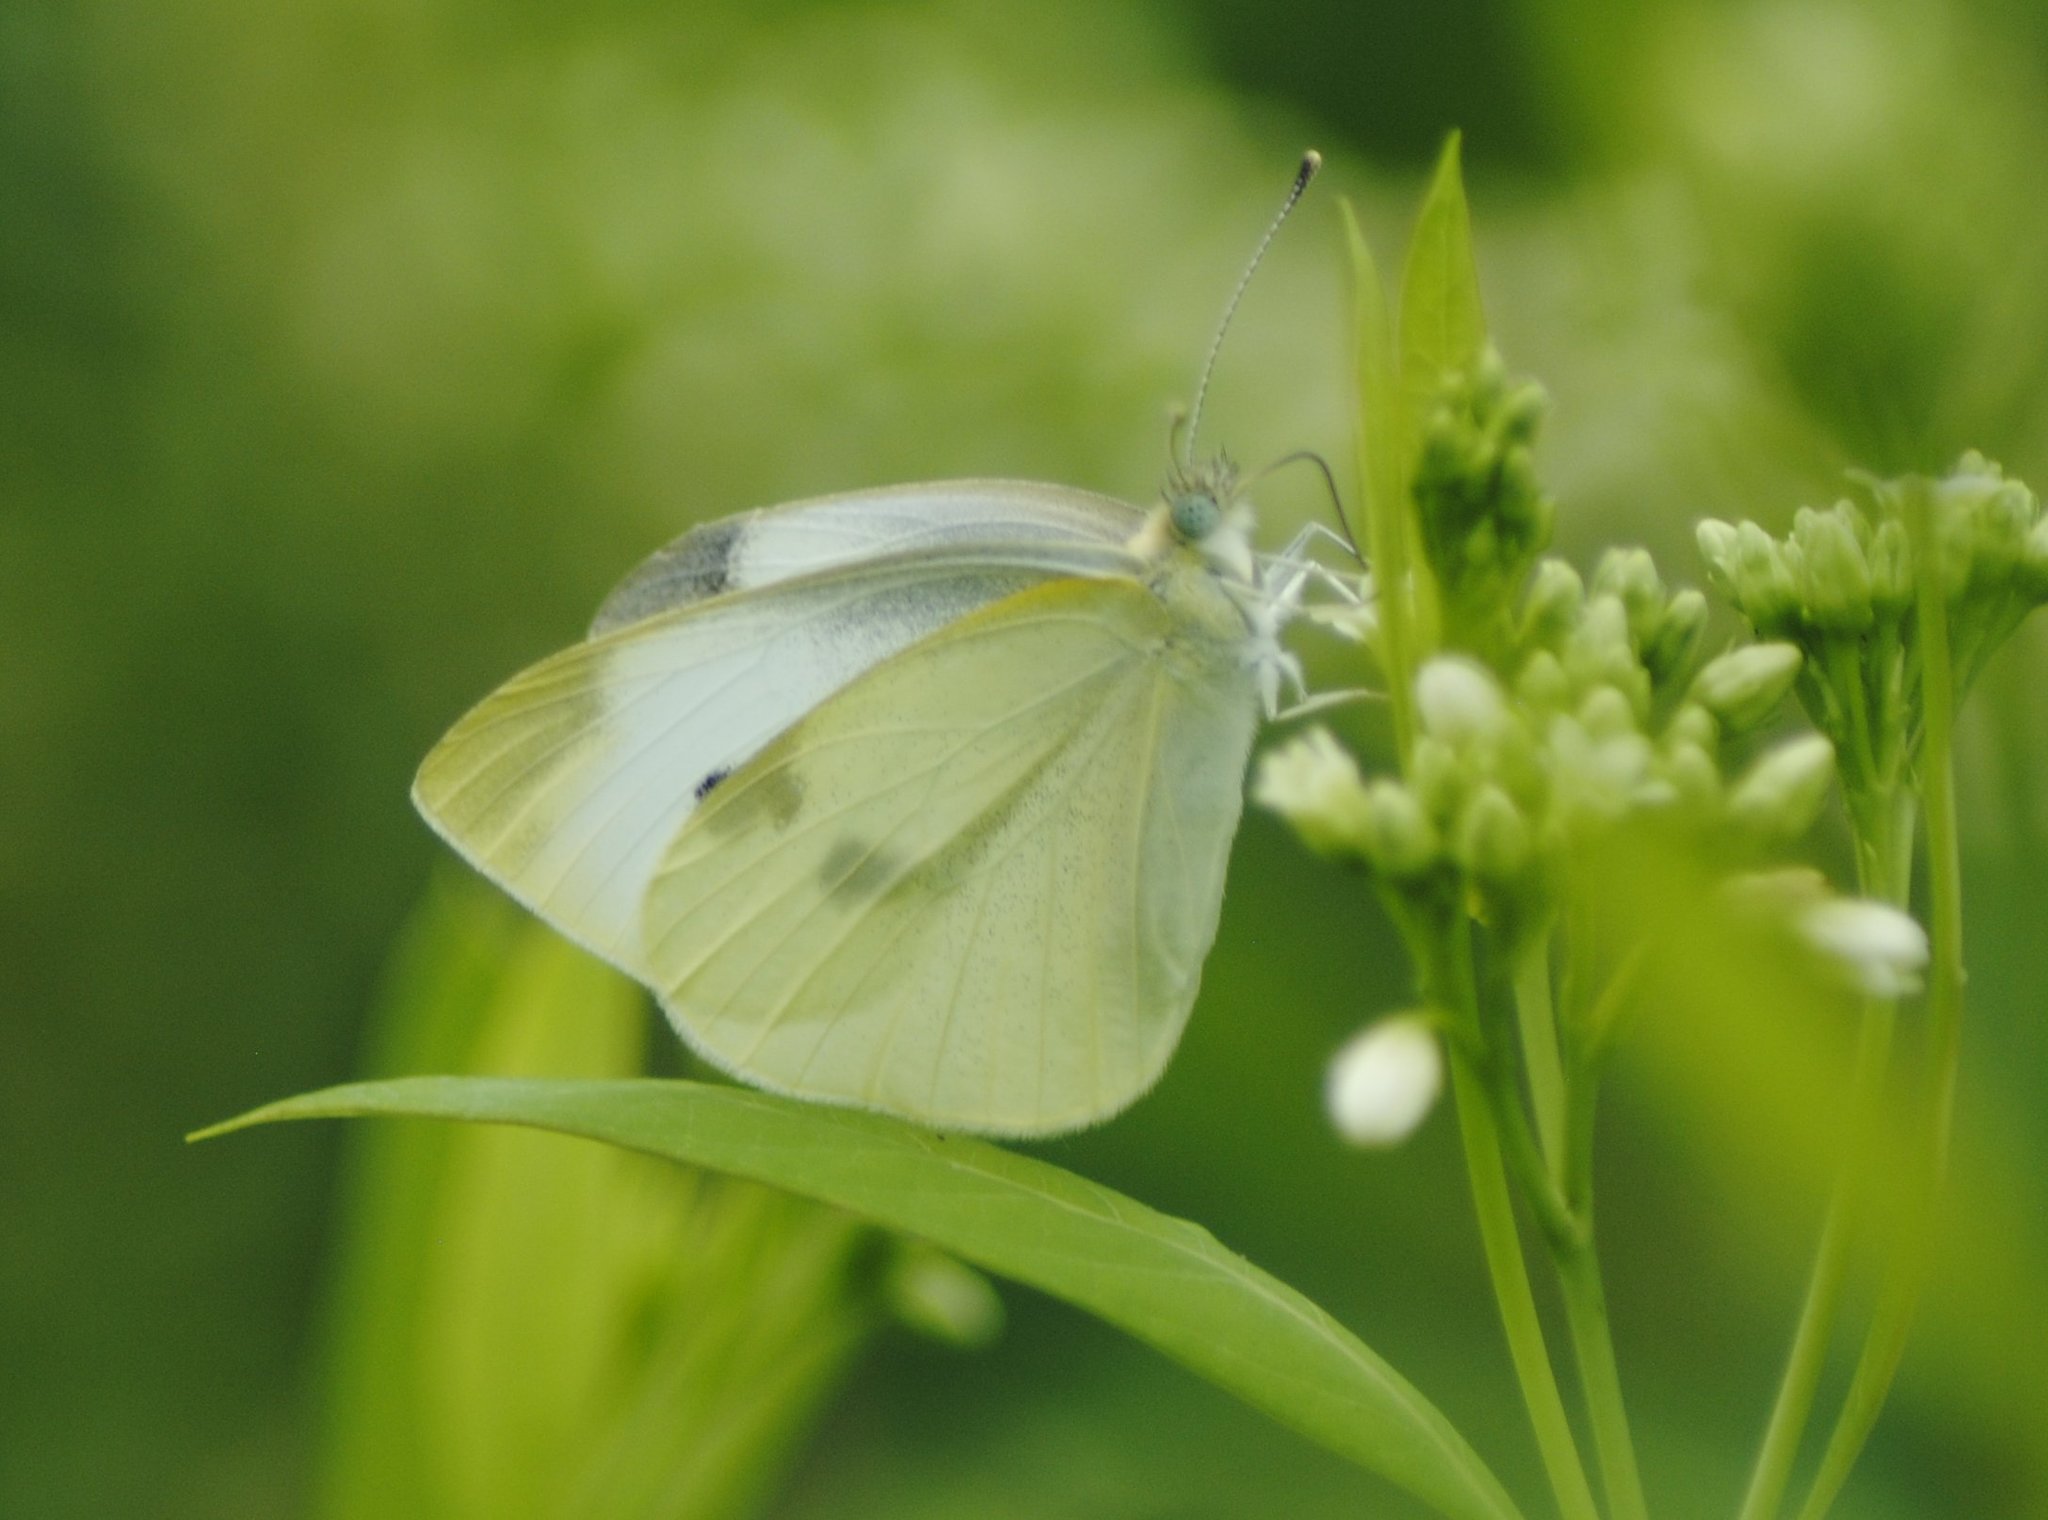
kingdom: Animalia
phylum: Arthropoda
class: Insecta
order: Lepidoptera
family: Pieridae
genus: Pieris
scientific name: Pieris rapae
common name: Small white
